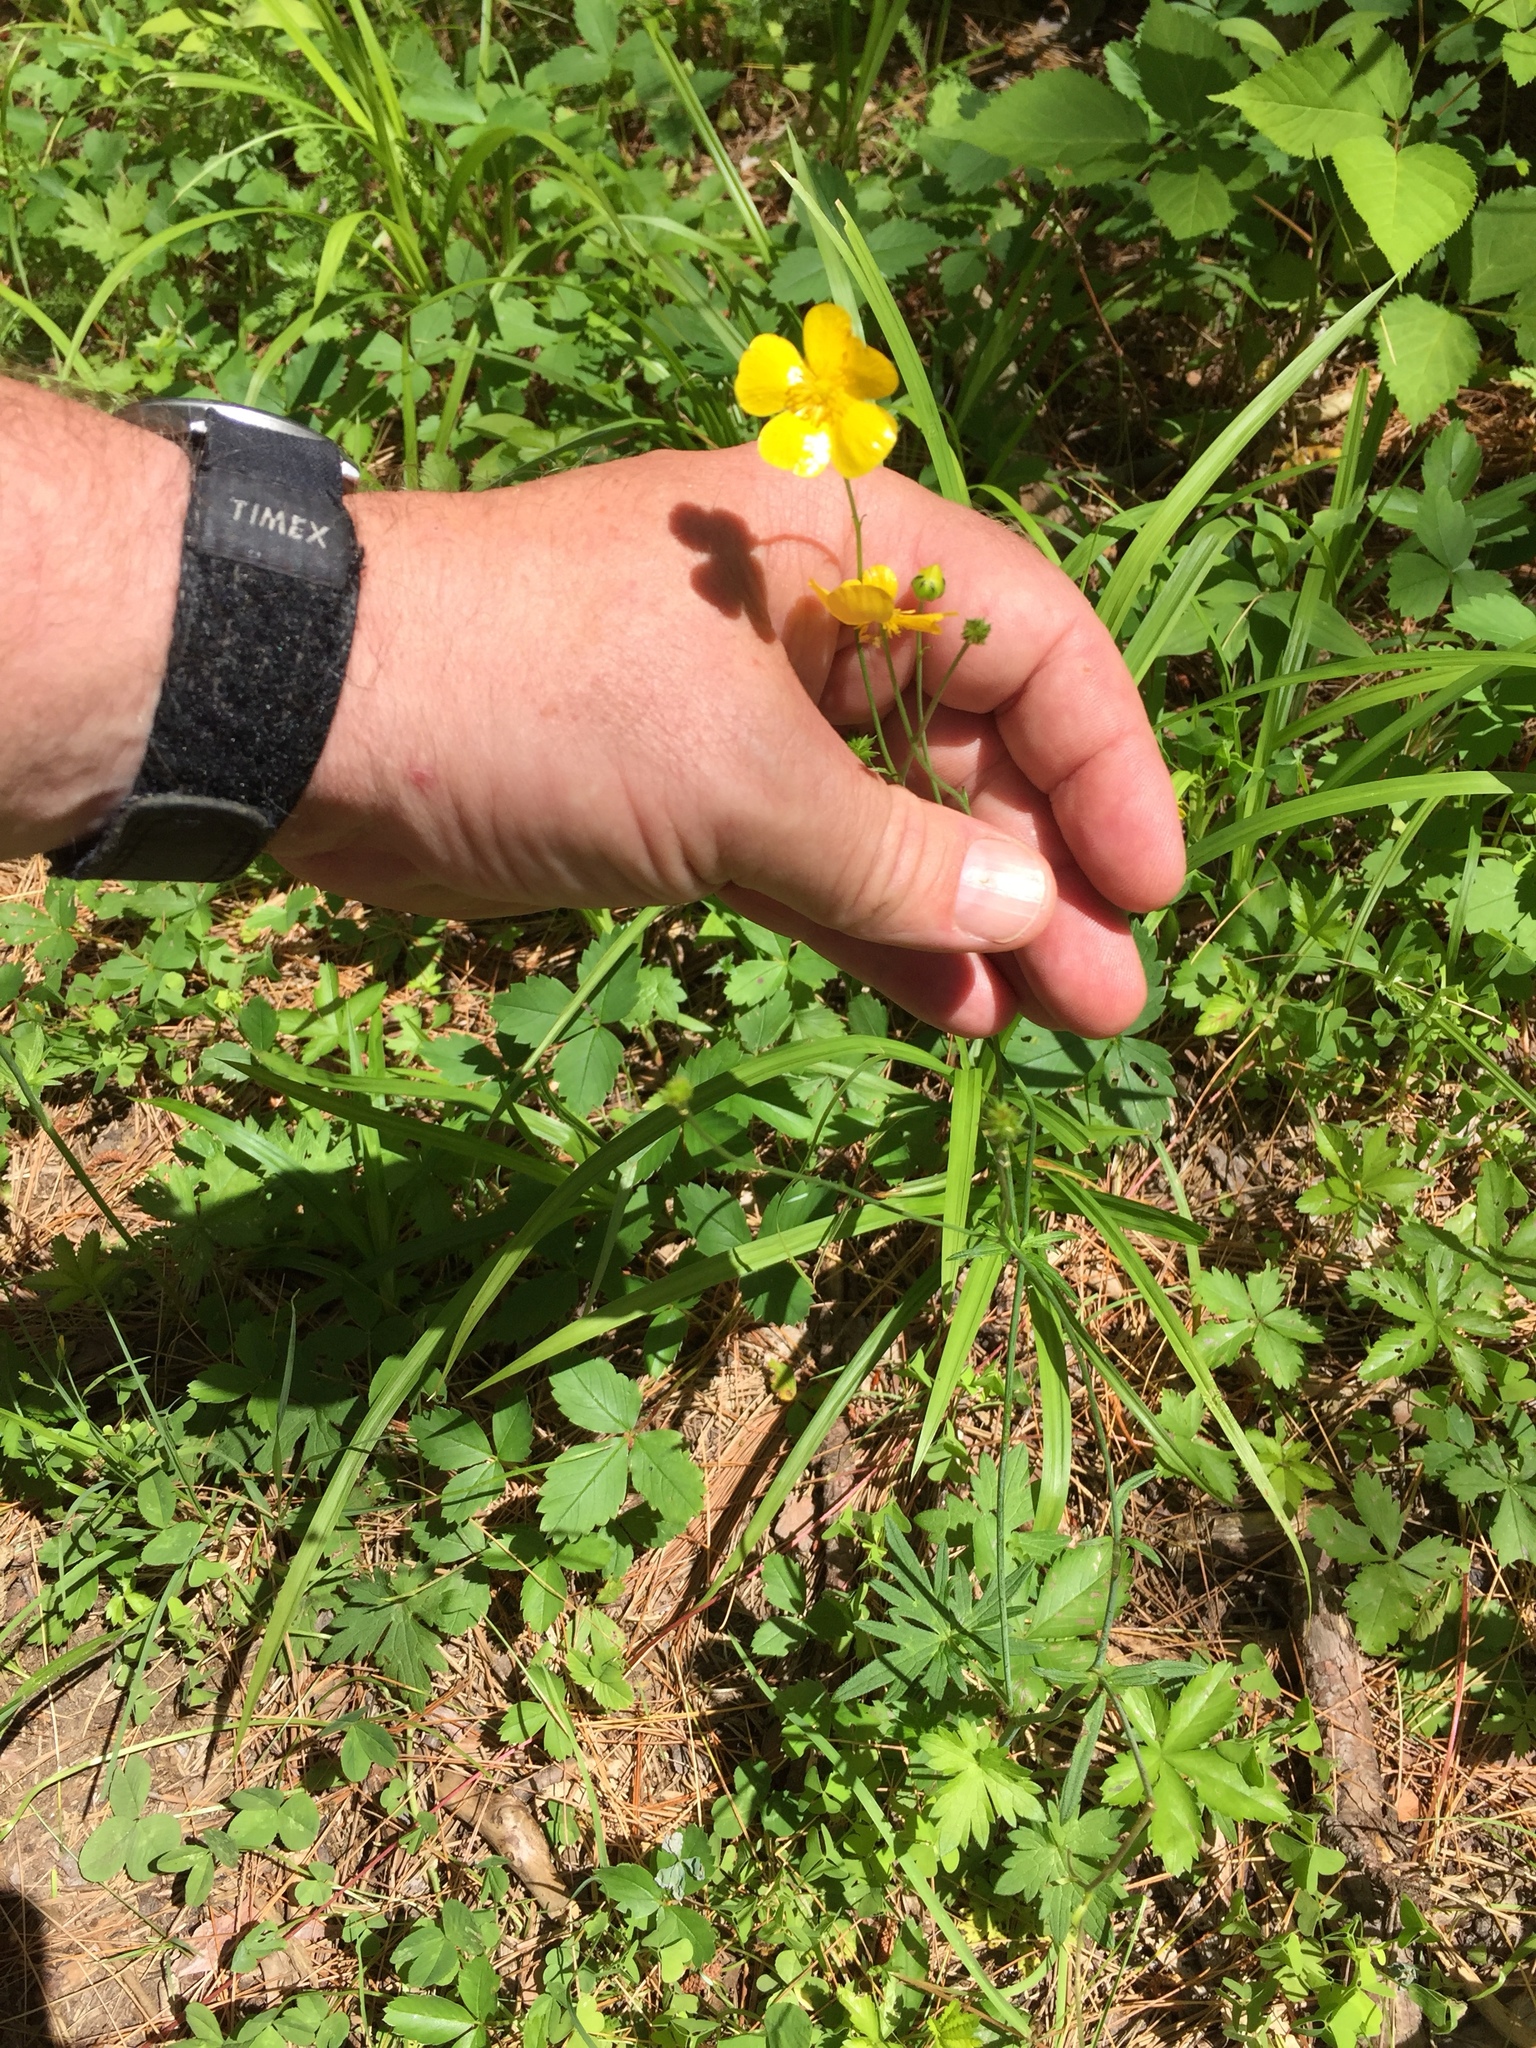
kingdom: Plantae
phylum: Tracheophyta
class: Magnoliopsida
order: Ranunculales
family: Ranunculaceae
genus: Ranunculus
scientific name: Ranunculus acris
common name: Meadow buttercup
